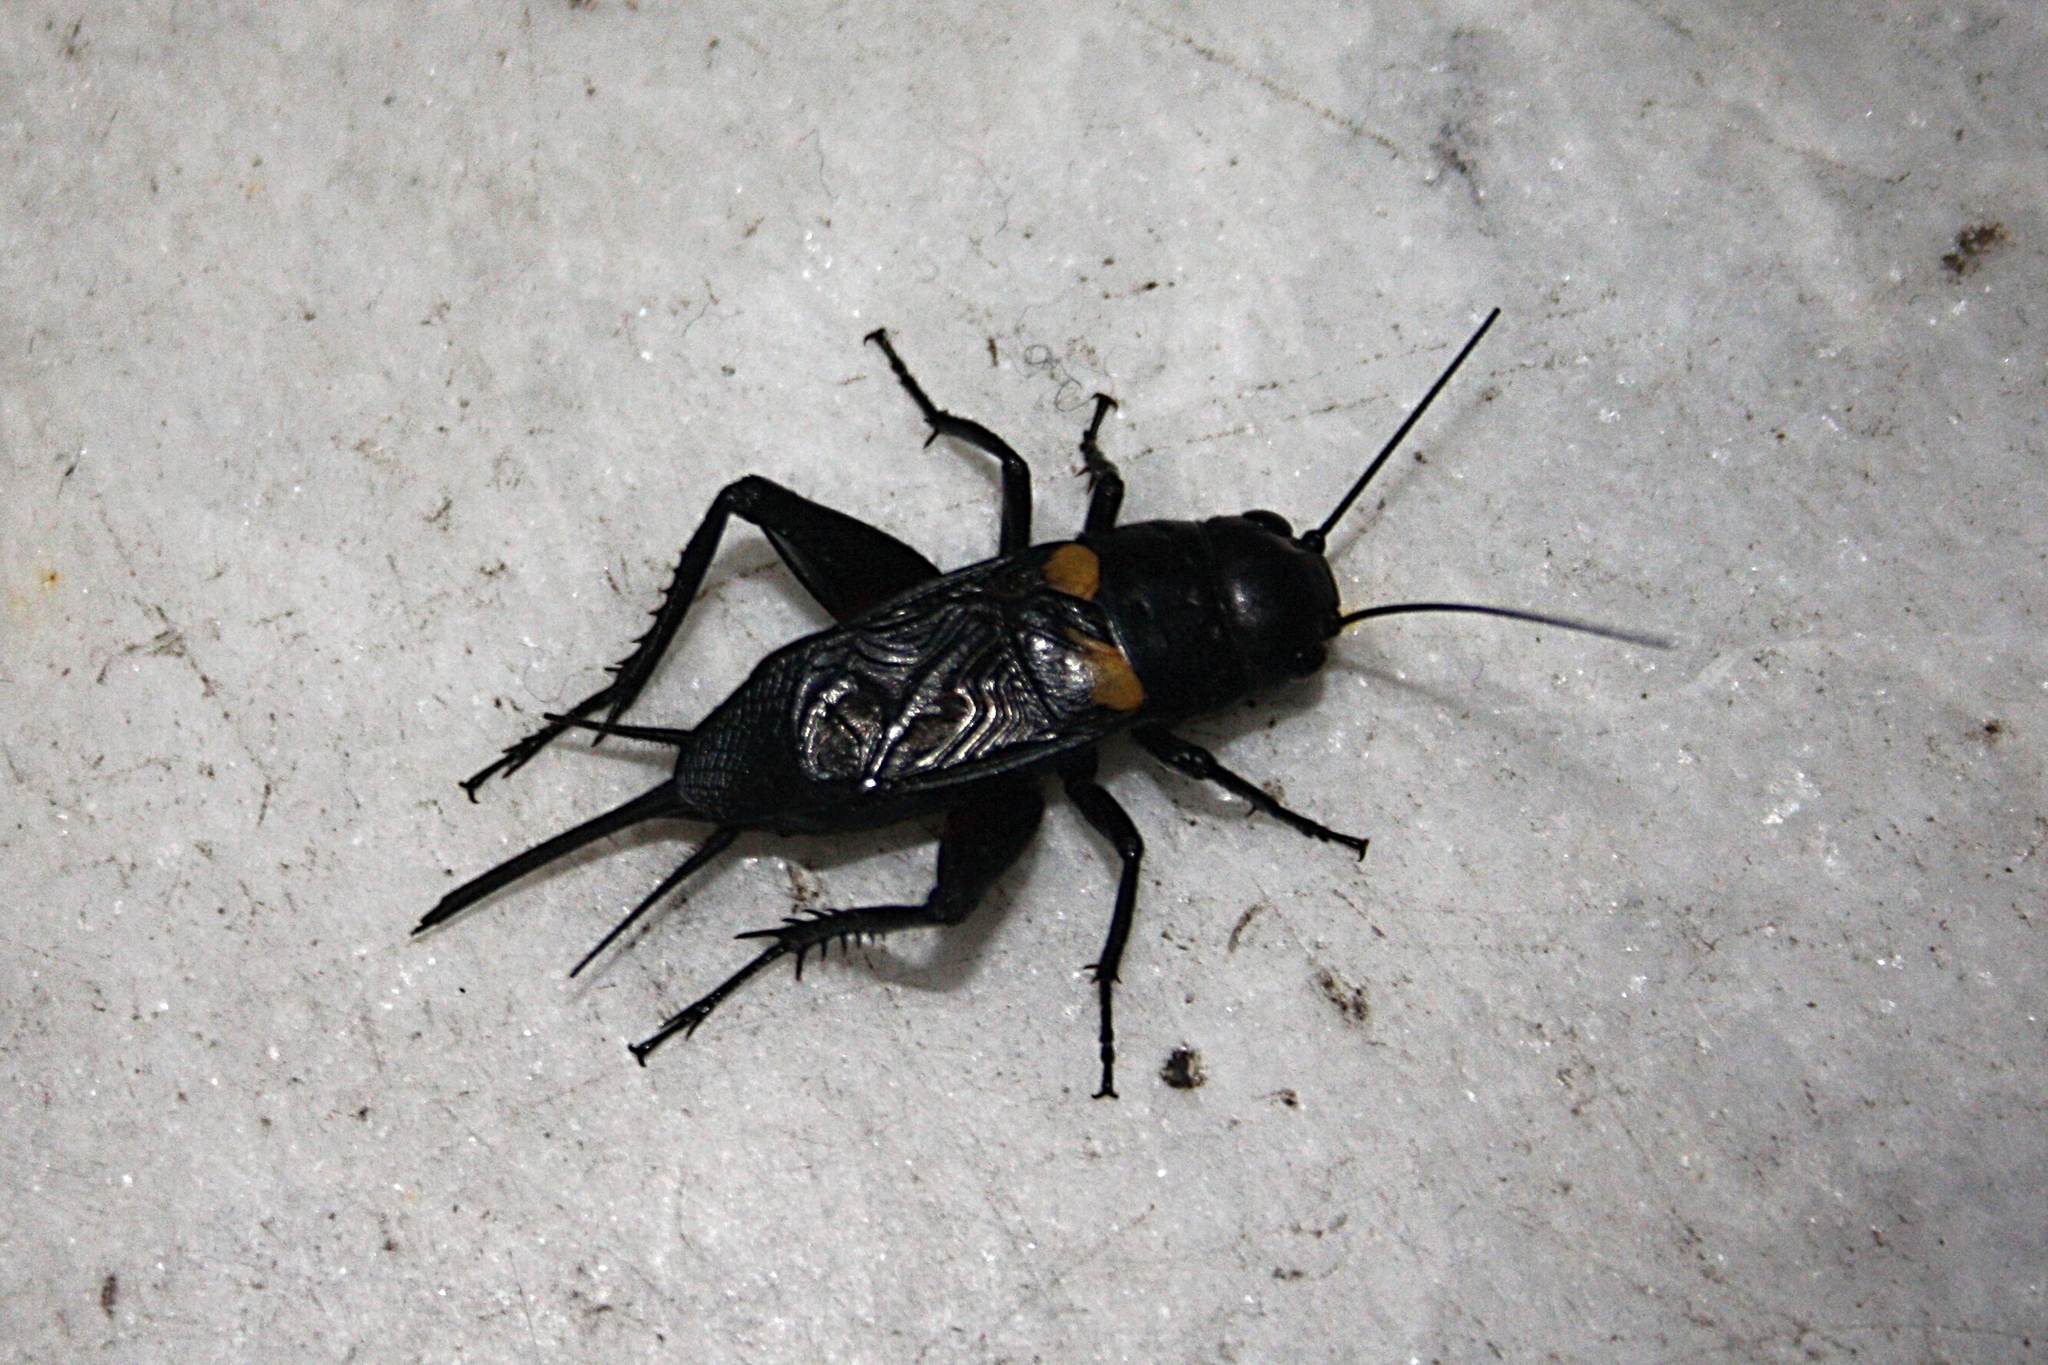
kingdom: Animalia
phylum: Arthropoda
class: Insecta
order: Orthoptera
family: Gryllidae
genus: Gryllus
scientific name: Gryllus bimaculatus
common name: Two-spotted cricket
